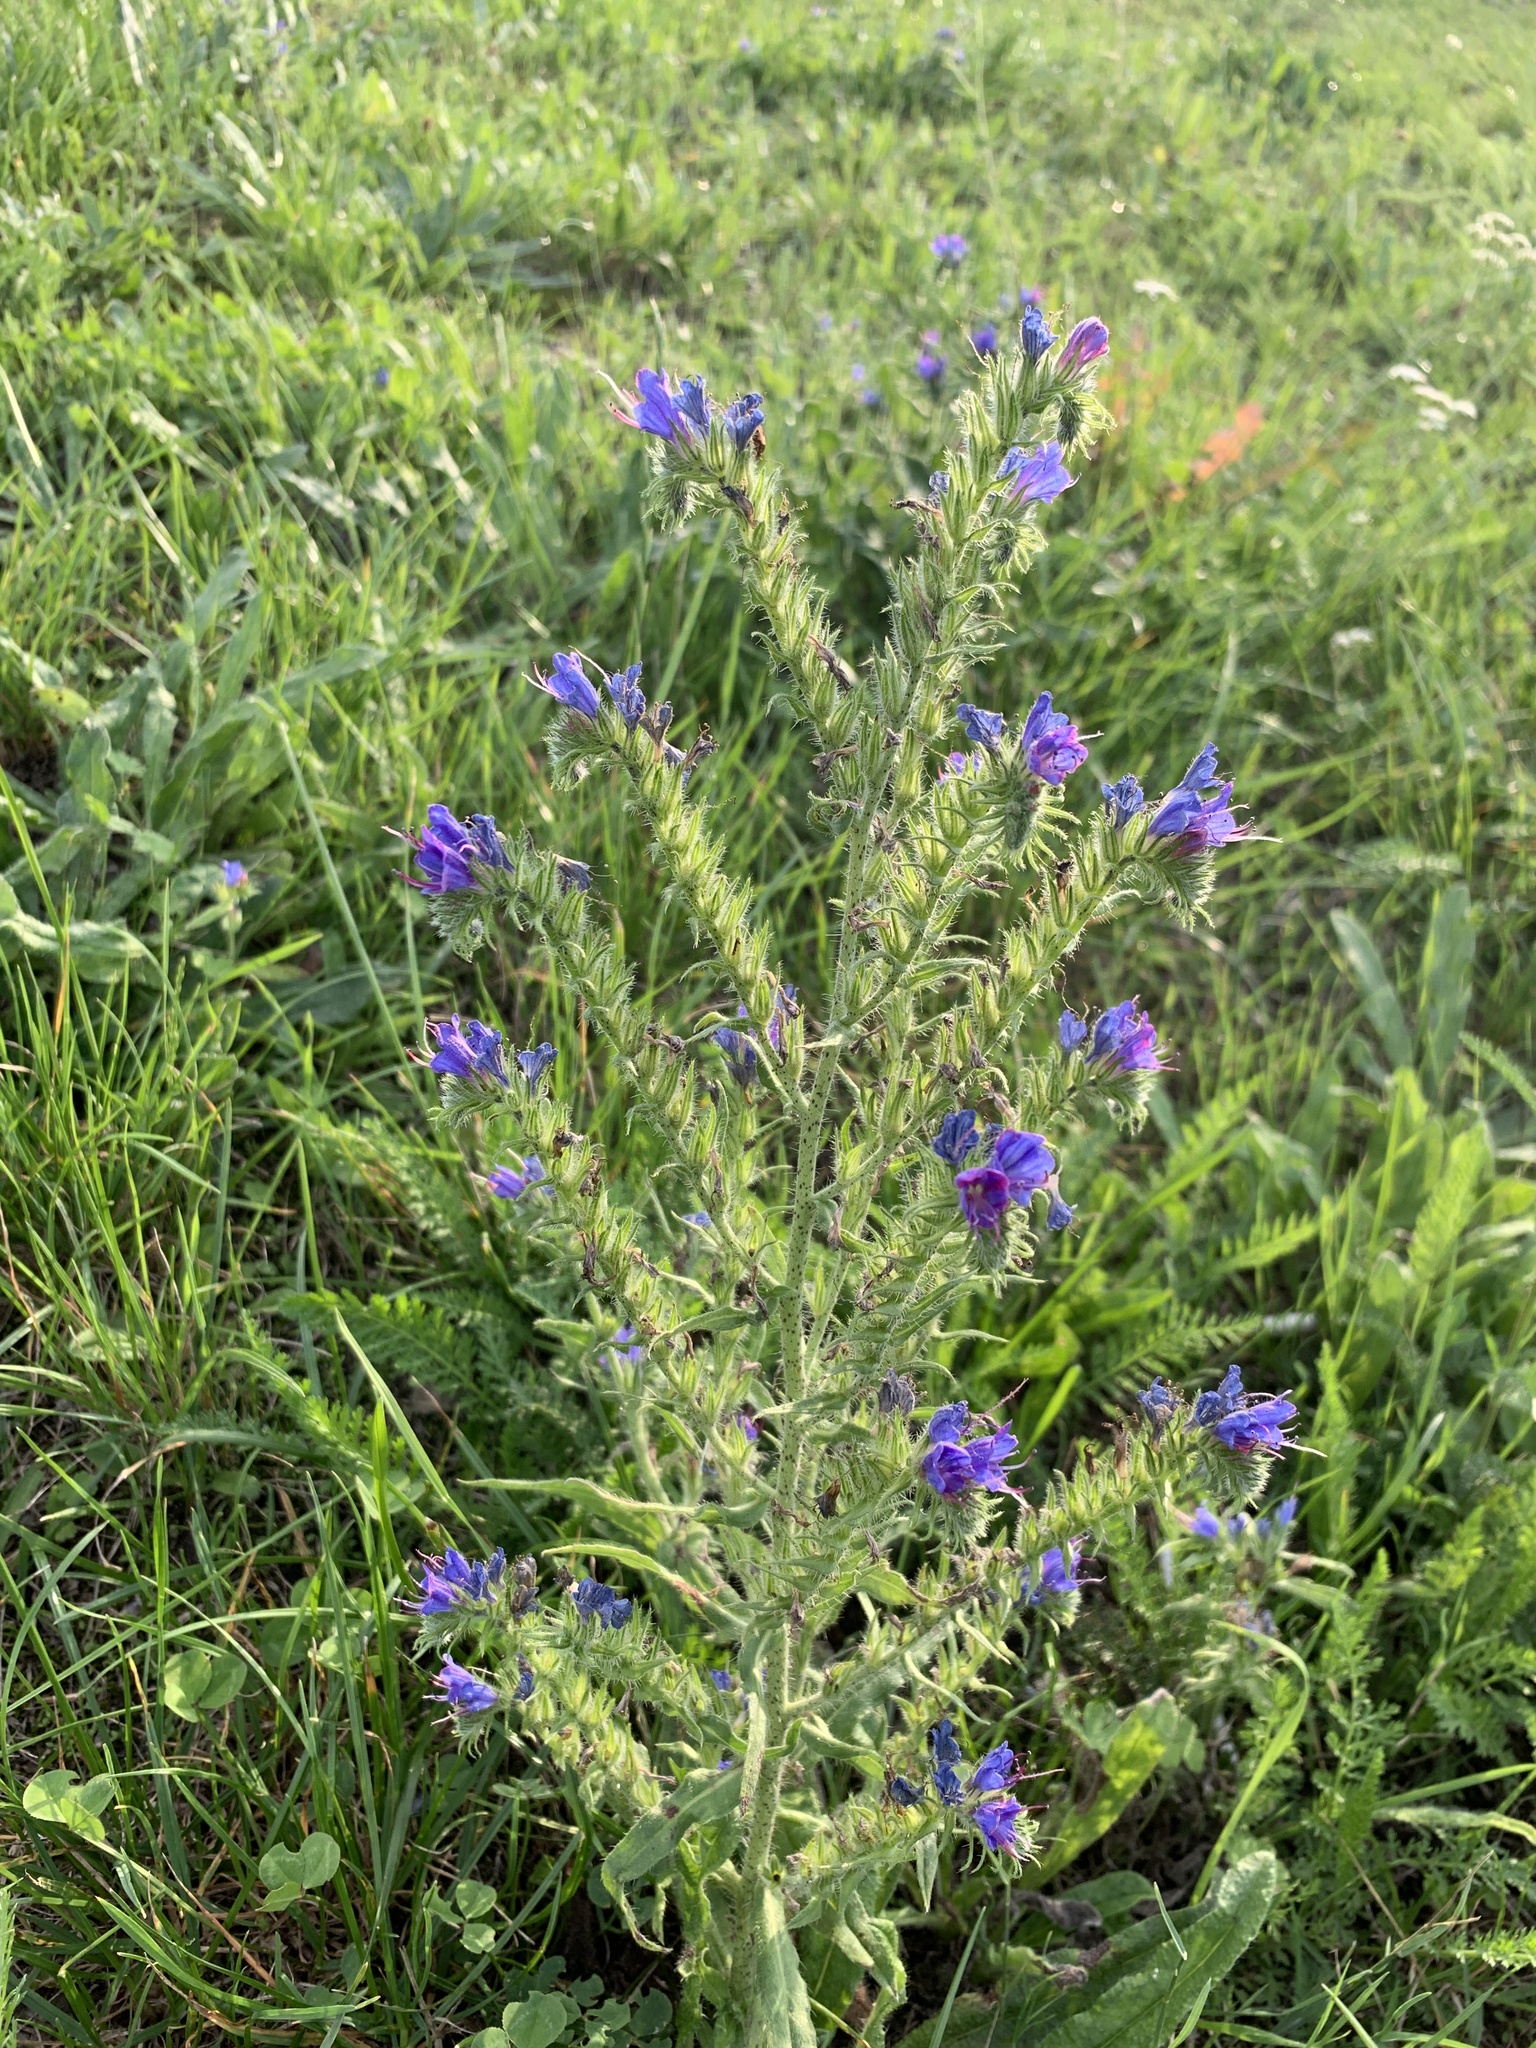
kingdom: Plantae
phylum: Tracheophyta
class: Magnoliopsida
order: Boraginales
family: Boraginaceae
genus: Echium
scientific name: Echium vulgare
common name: Common viper's bugloss
